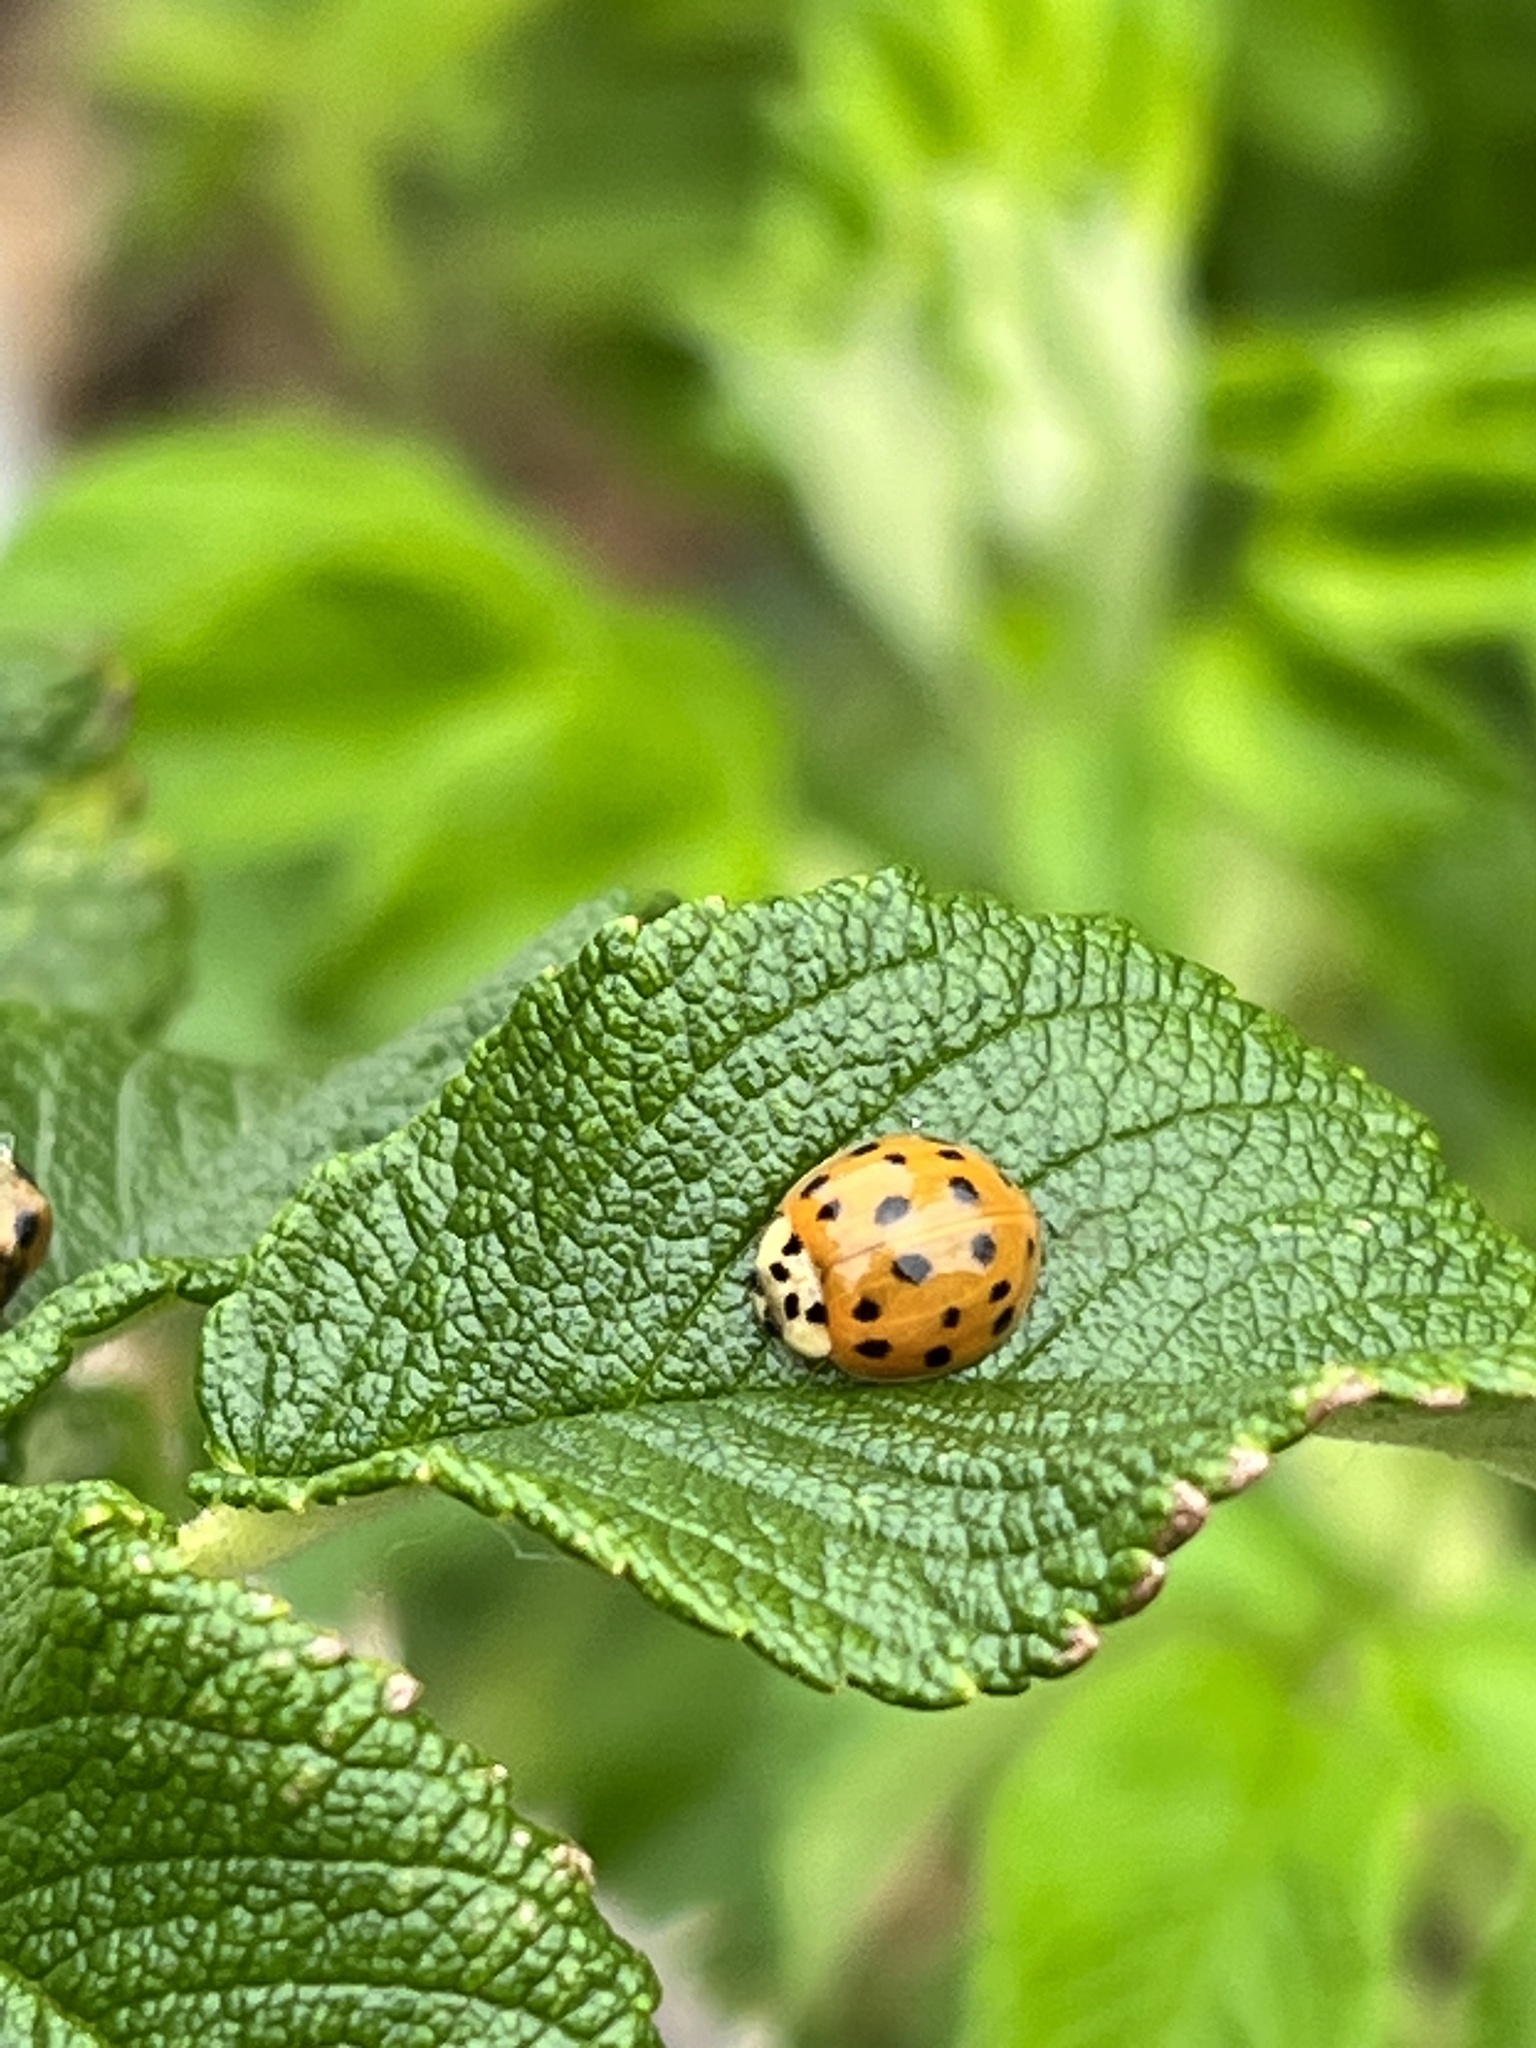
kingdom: Animalia
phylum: Arthropoda
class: Insecta
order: Coleoptera
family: Coccinellidae
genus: Harmonia
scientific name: Harmonia axyridis
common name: Harlequin ladybird
